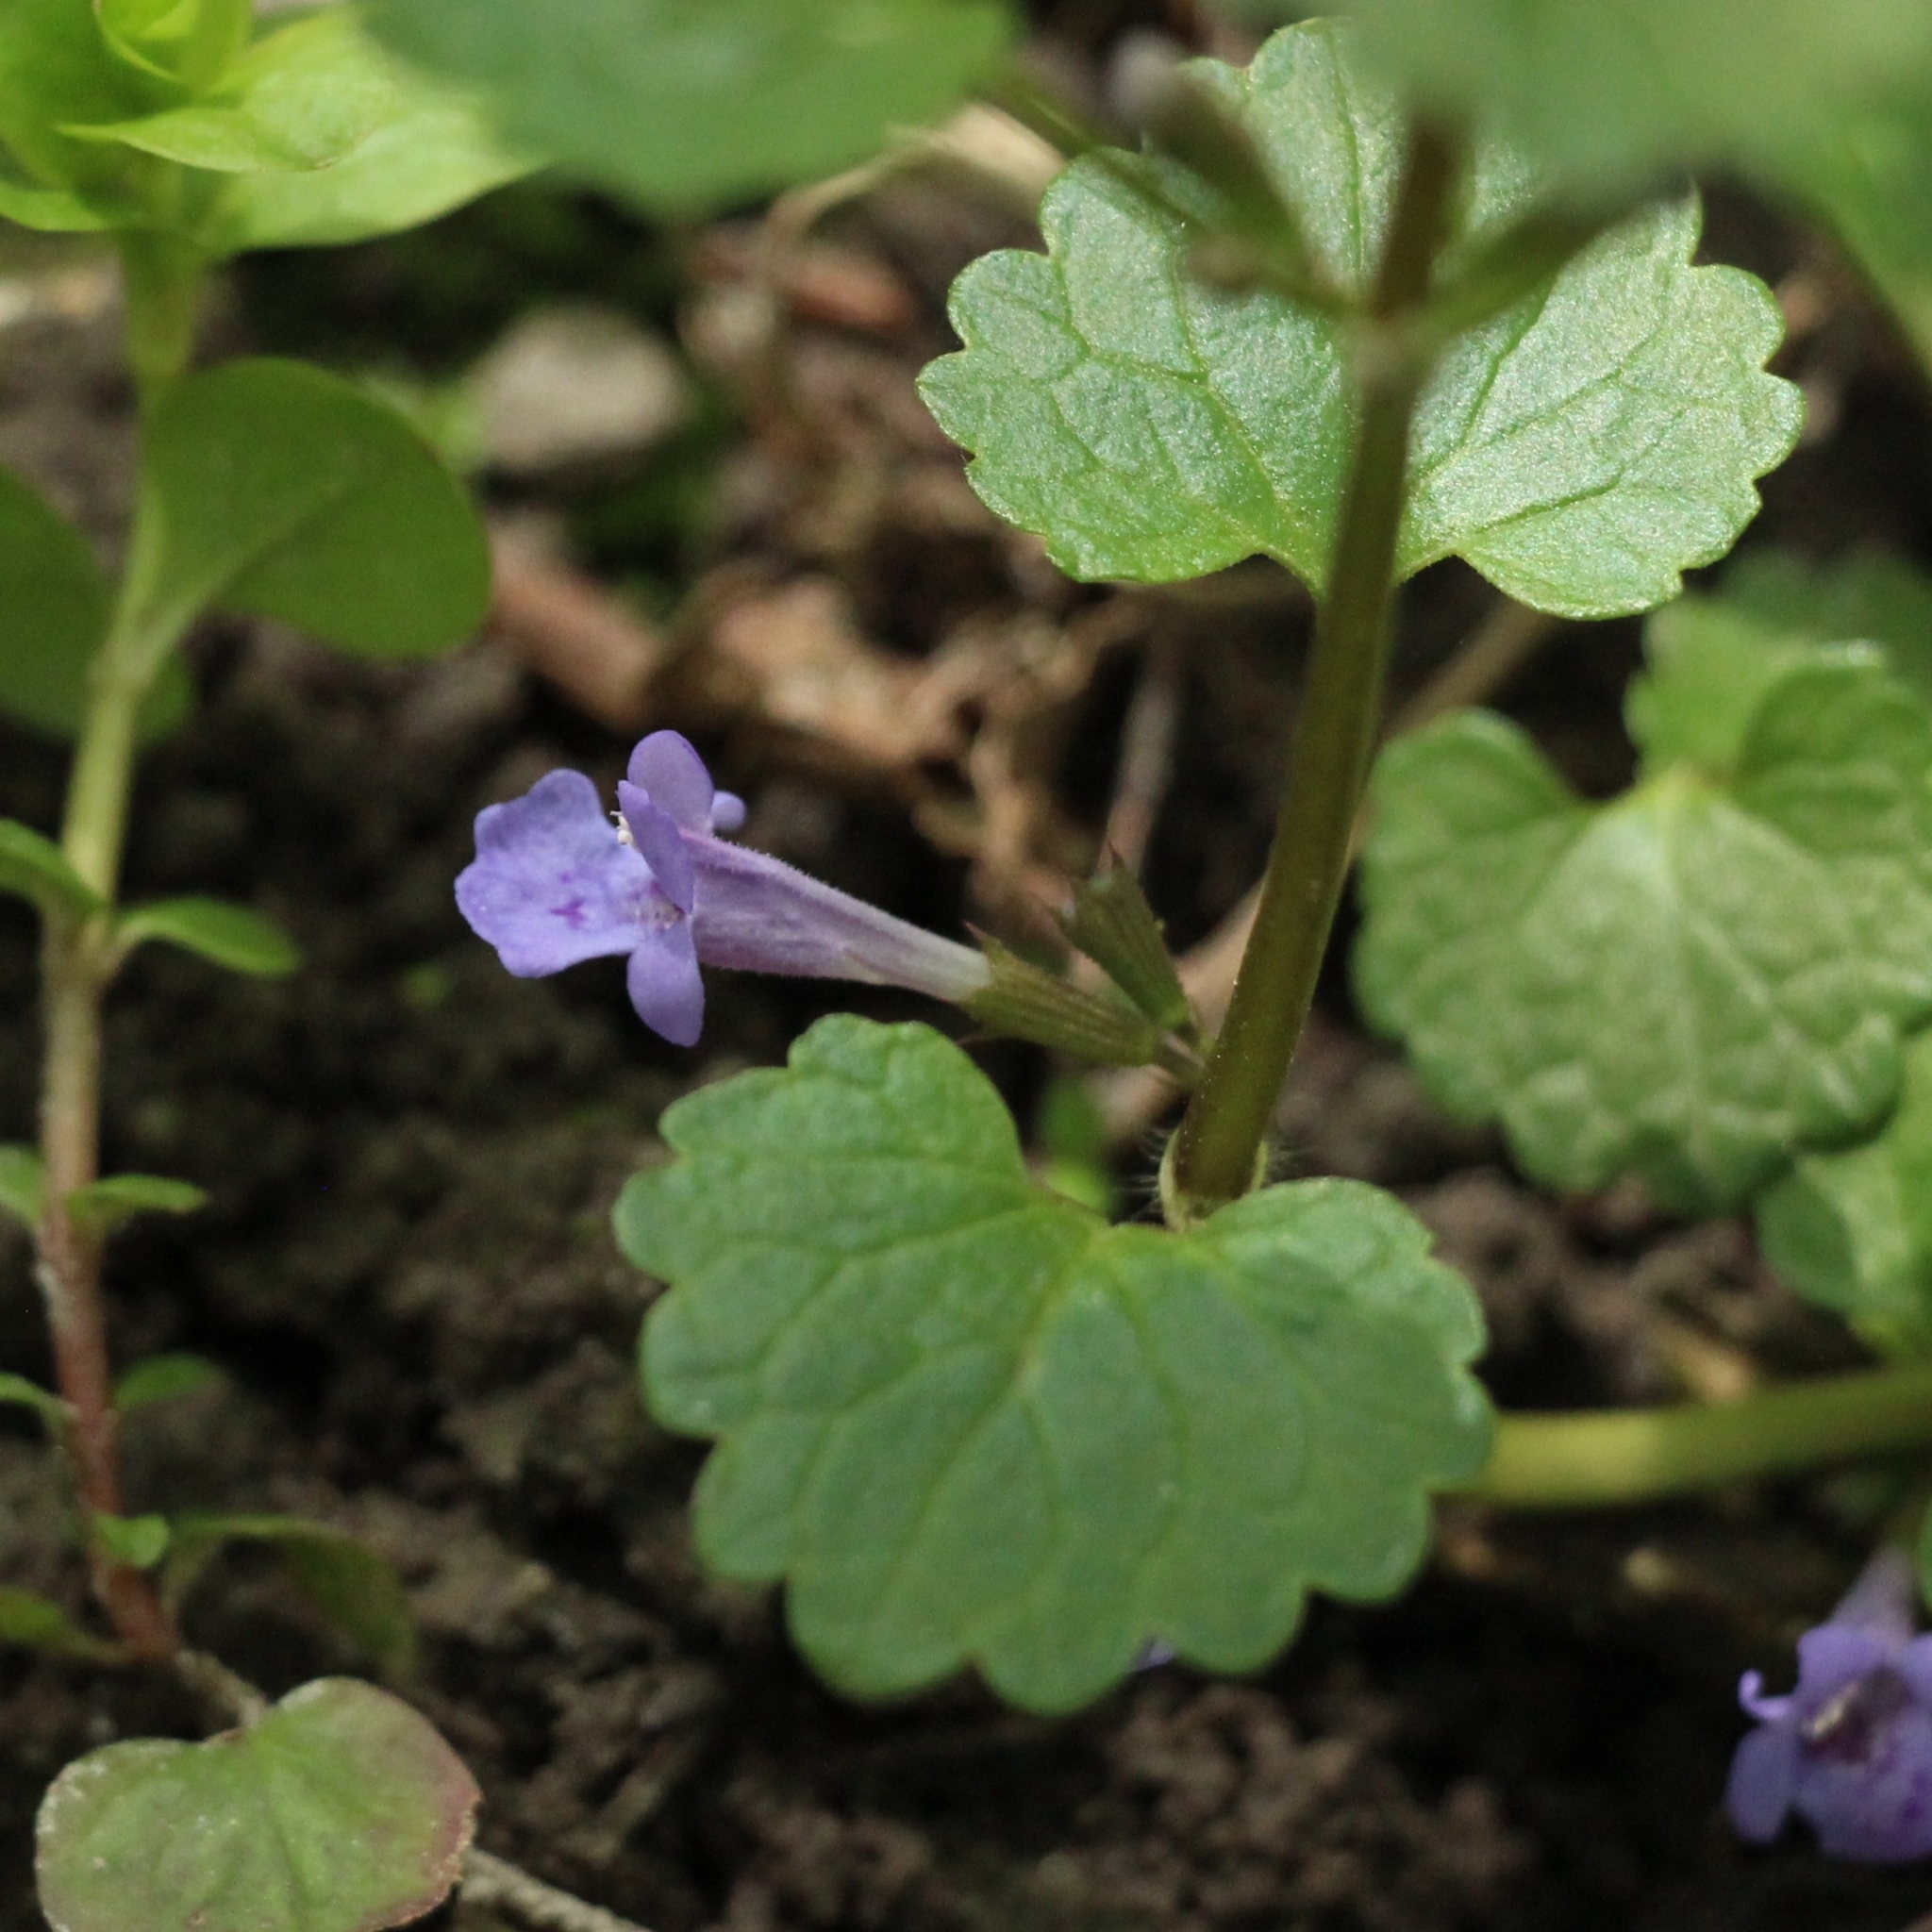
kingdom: Plantae
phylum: Tracheophyta
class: Magnoliopsida
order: Lamiales
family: Lamiaceae
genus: Glechoma
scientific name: Glechoma hederacea
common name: Ground ivy
